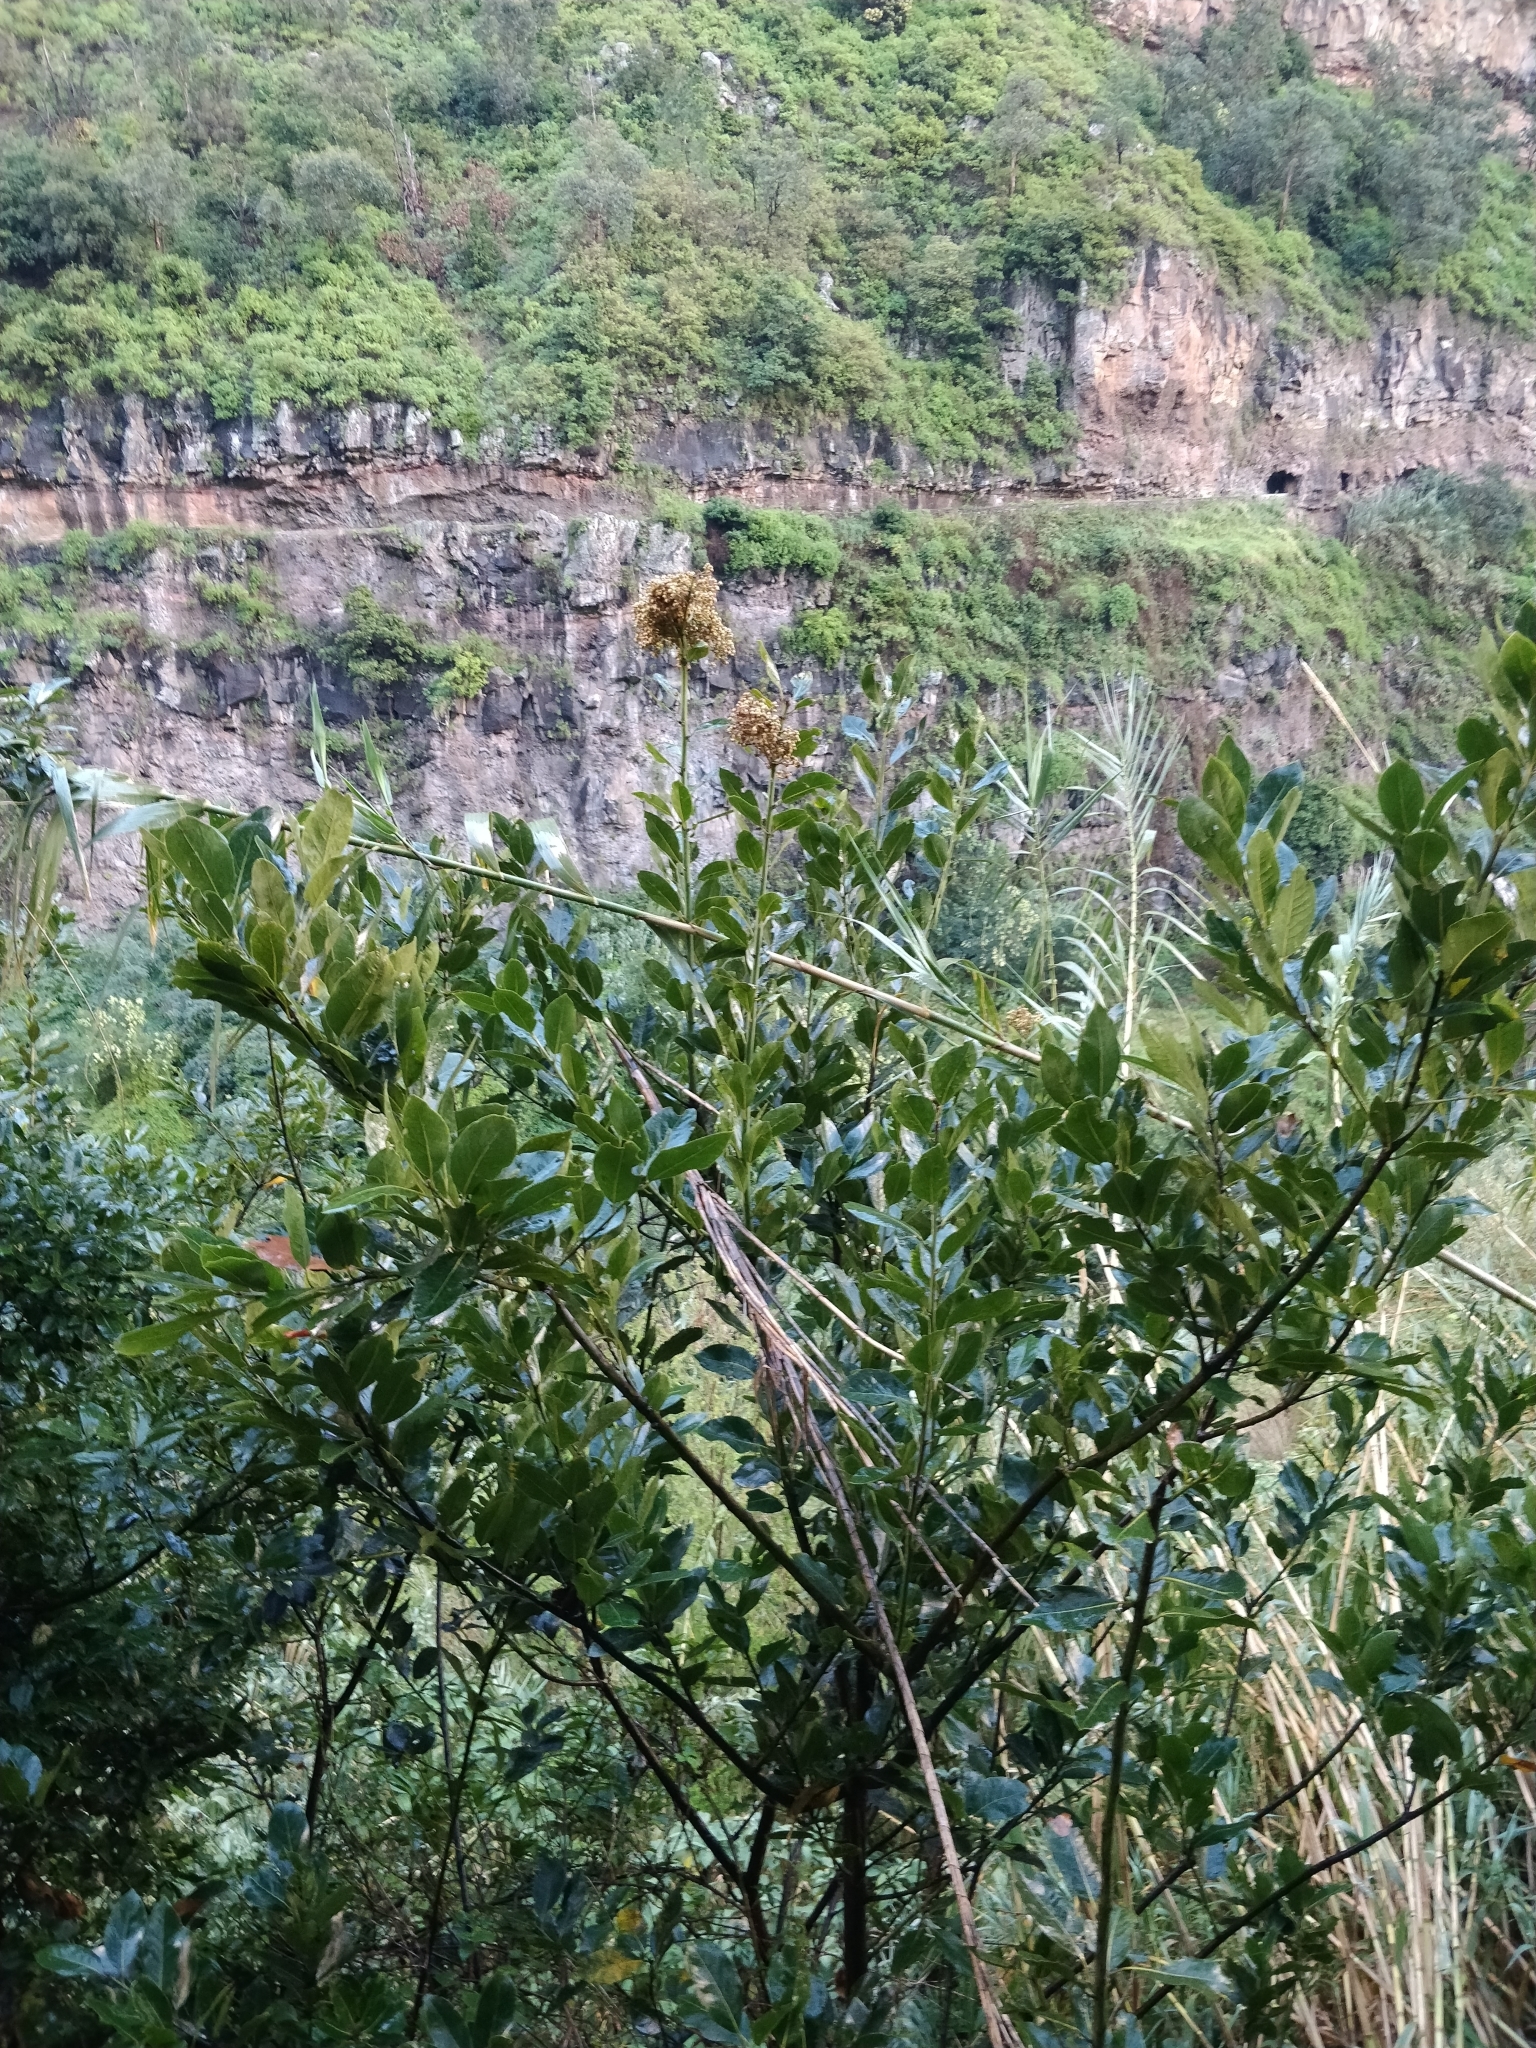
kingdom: Plantae
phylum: Tracheophyta
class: Magnoliopsida
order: Laurales
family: Lauraceae
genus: Laurus
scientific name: Laurus novocanariensis
